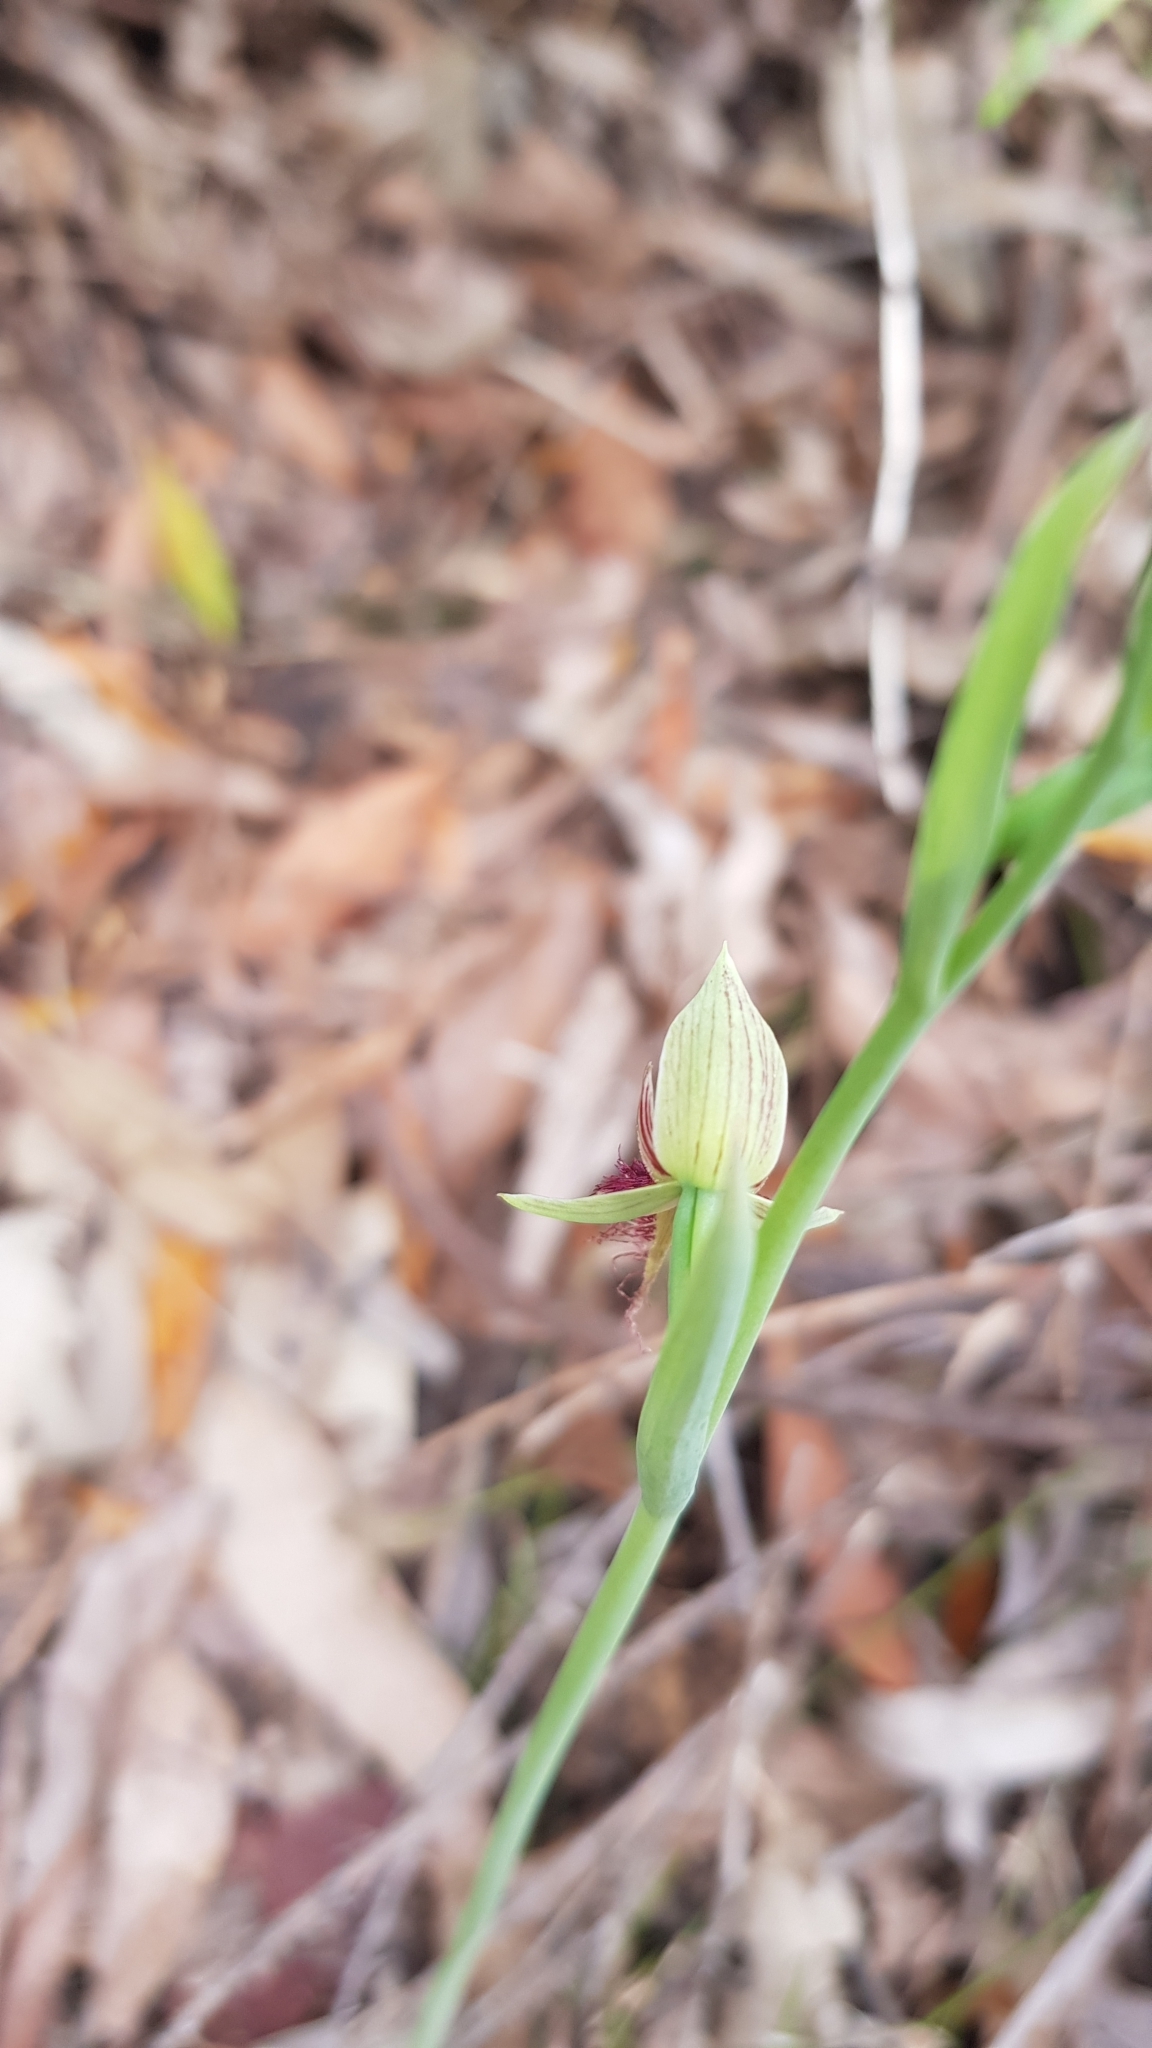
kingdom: Plantae
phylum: Tracheophyta
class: Liliopsida
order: Asparagales
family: Orchidaceae
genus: Calochilus
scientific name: Calochilus robertsonii
